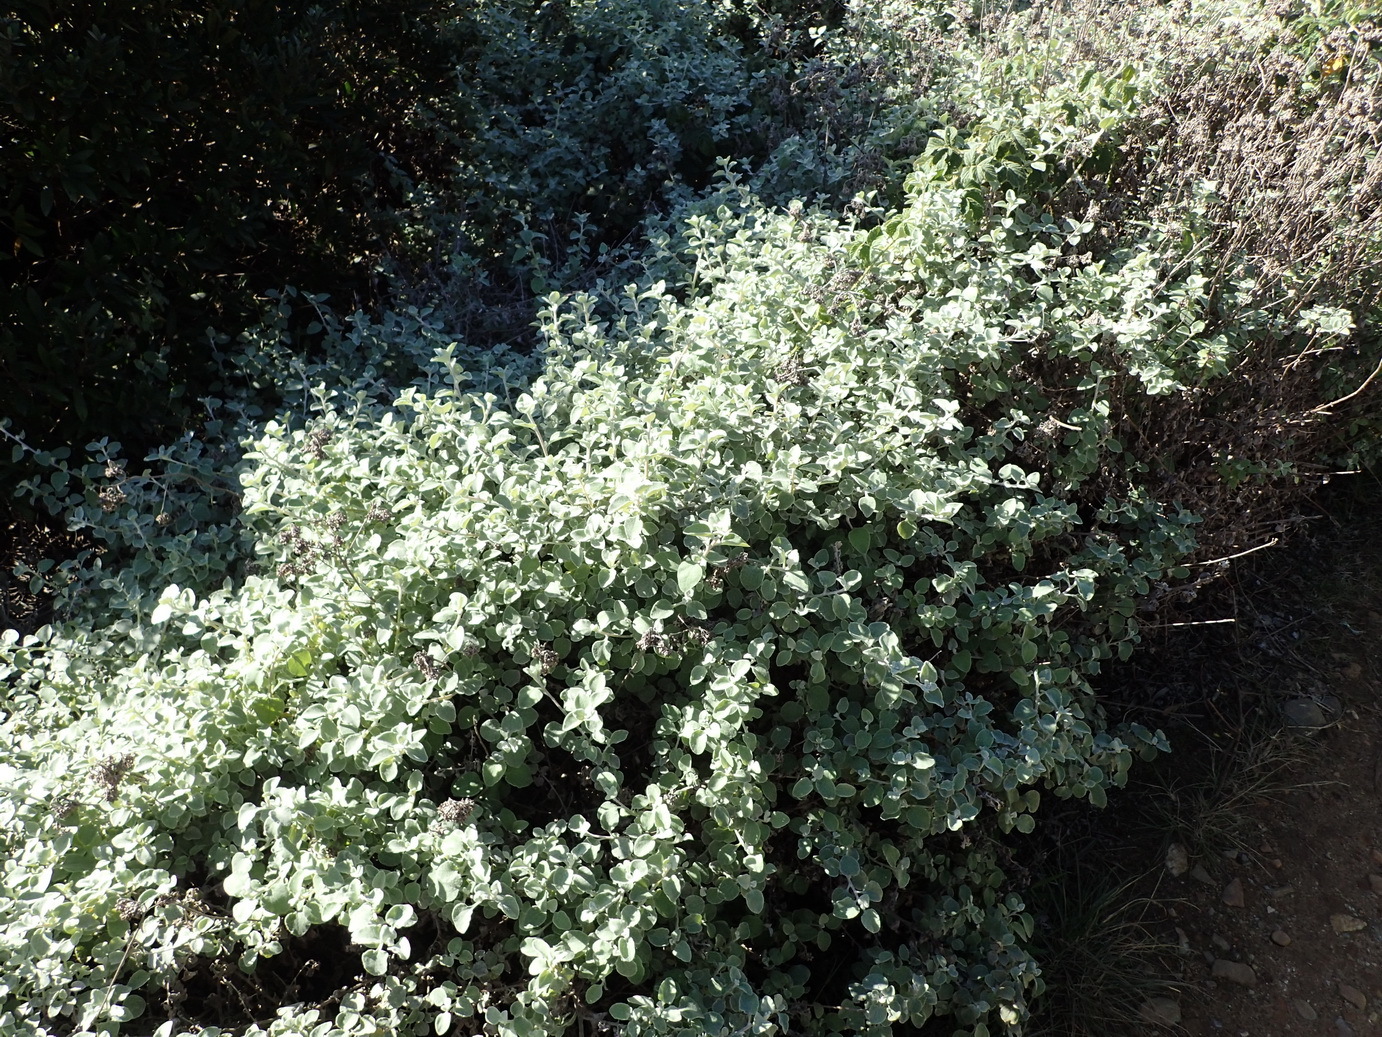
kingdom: Plantae
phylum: Tracheophyta
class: Magnoliopsida
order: Asterales
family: Asteraceae
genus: Helichrysum
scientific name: Helichrysum petiolare
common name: Licorice-plant
